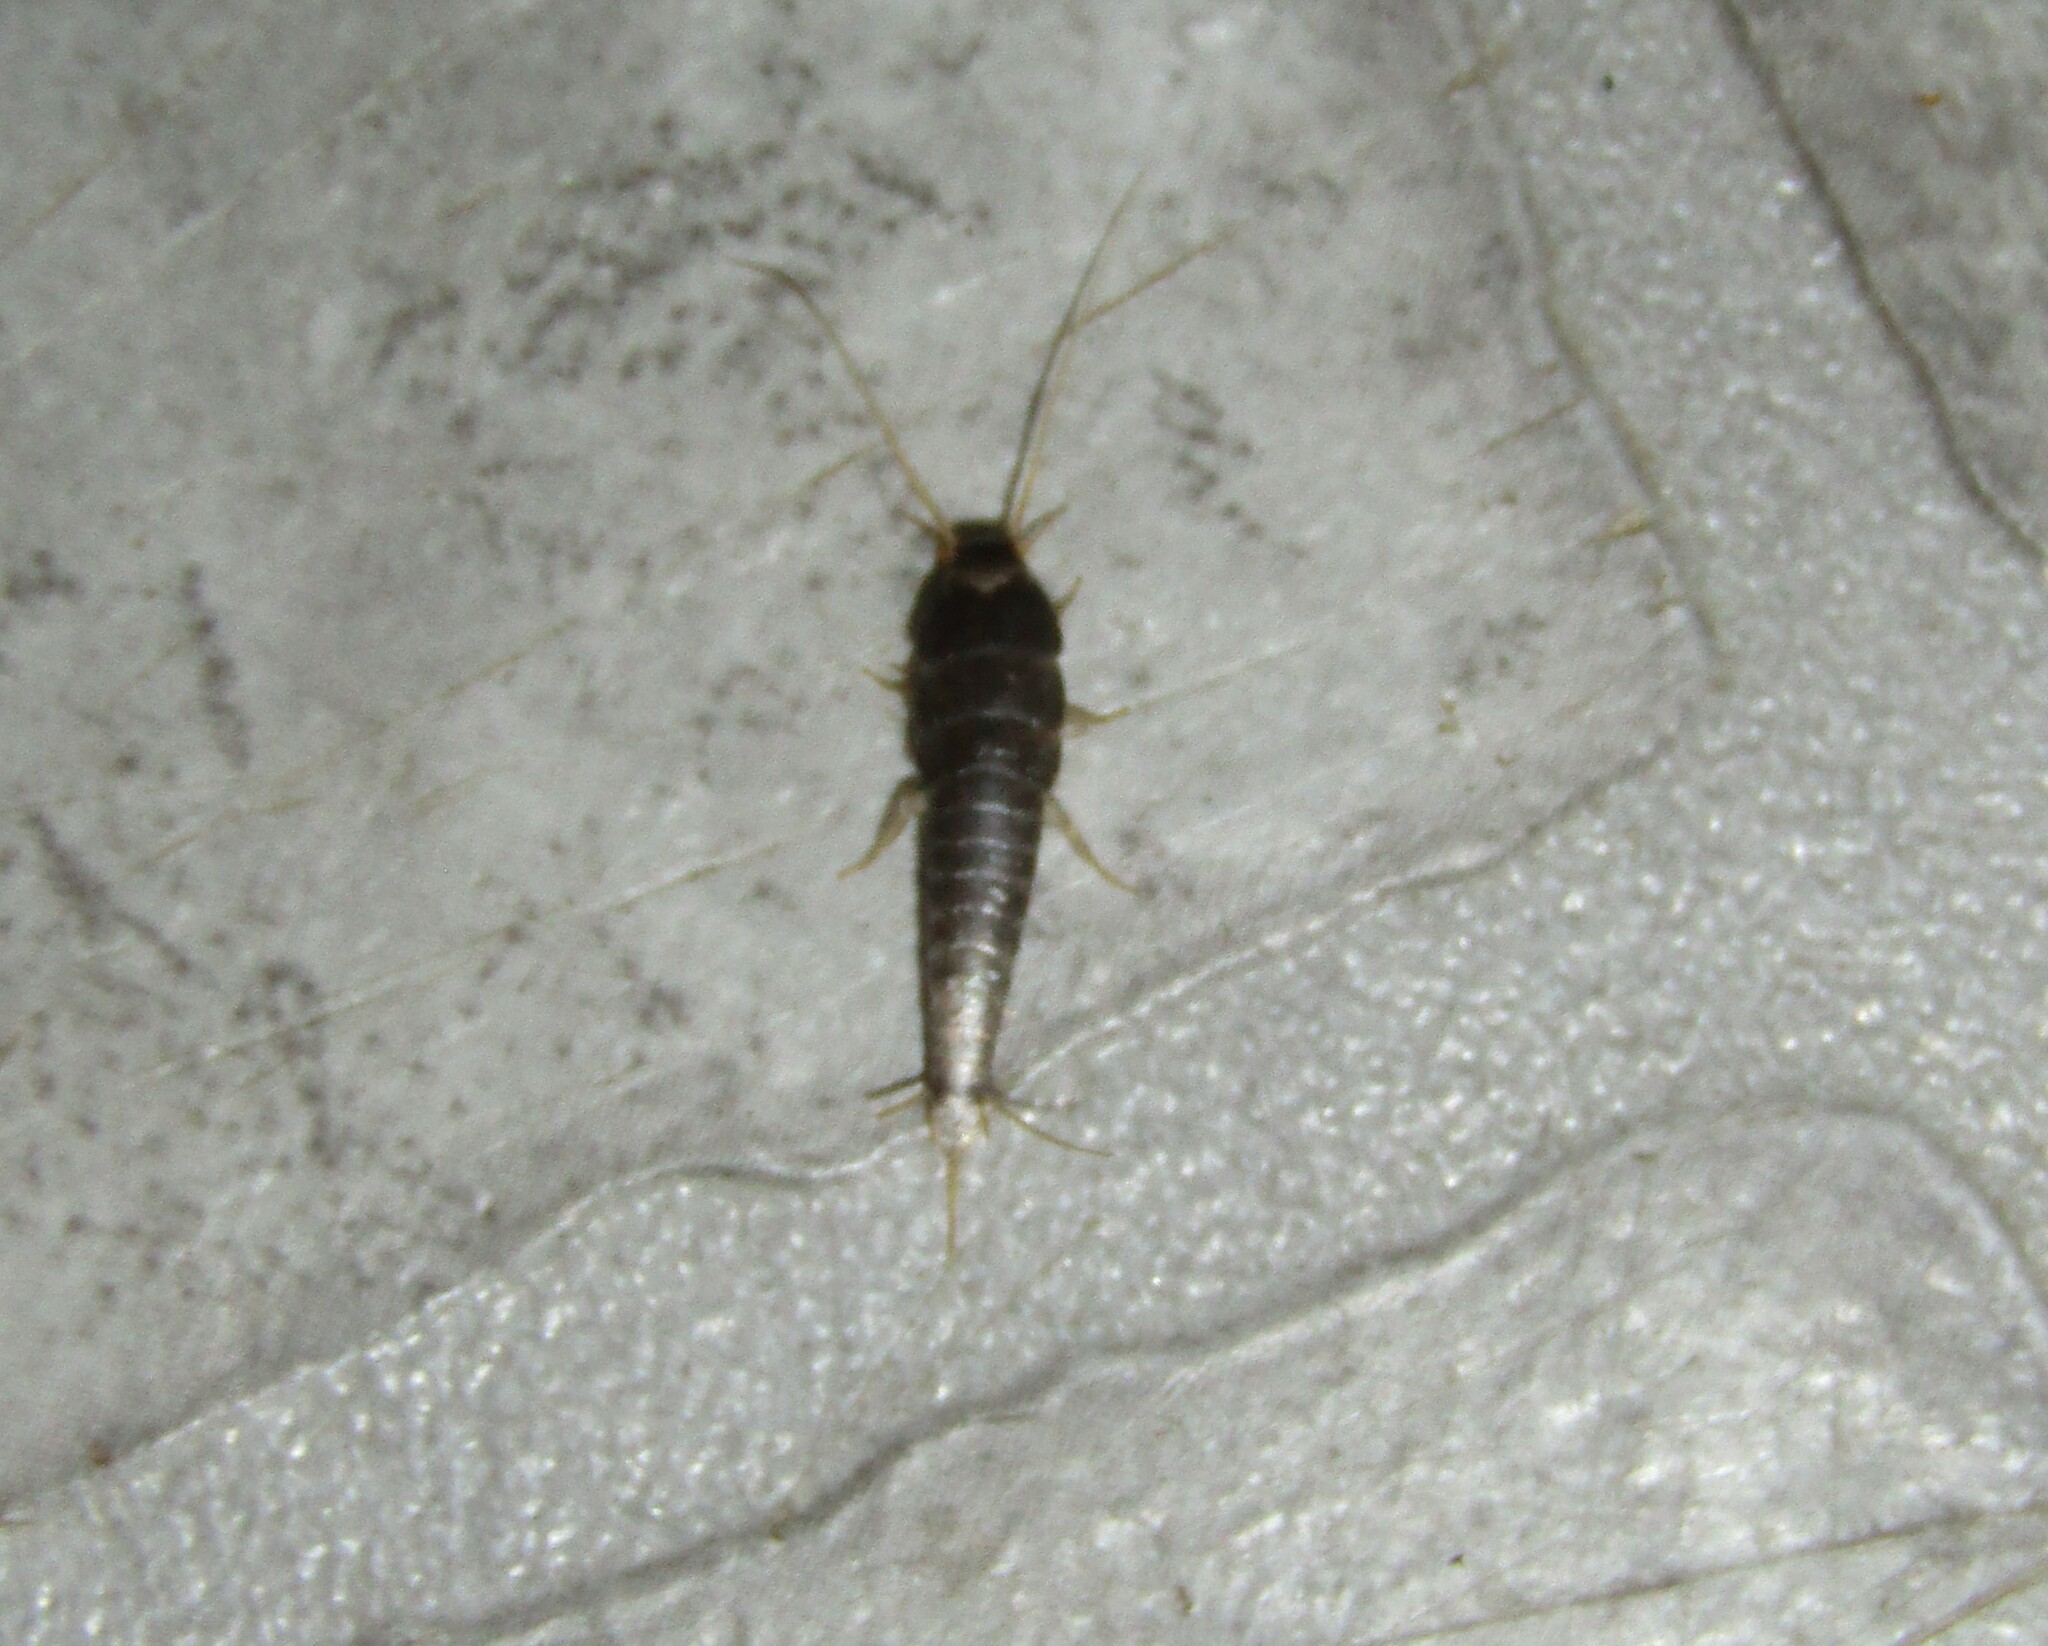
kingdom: Animalia
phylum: Arthropoda
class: Insecta
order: Zygentoma
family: Lepismatidae
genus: Lepisma
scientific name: Lepisma saccharinum
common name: Silverfish
